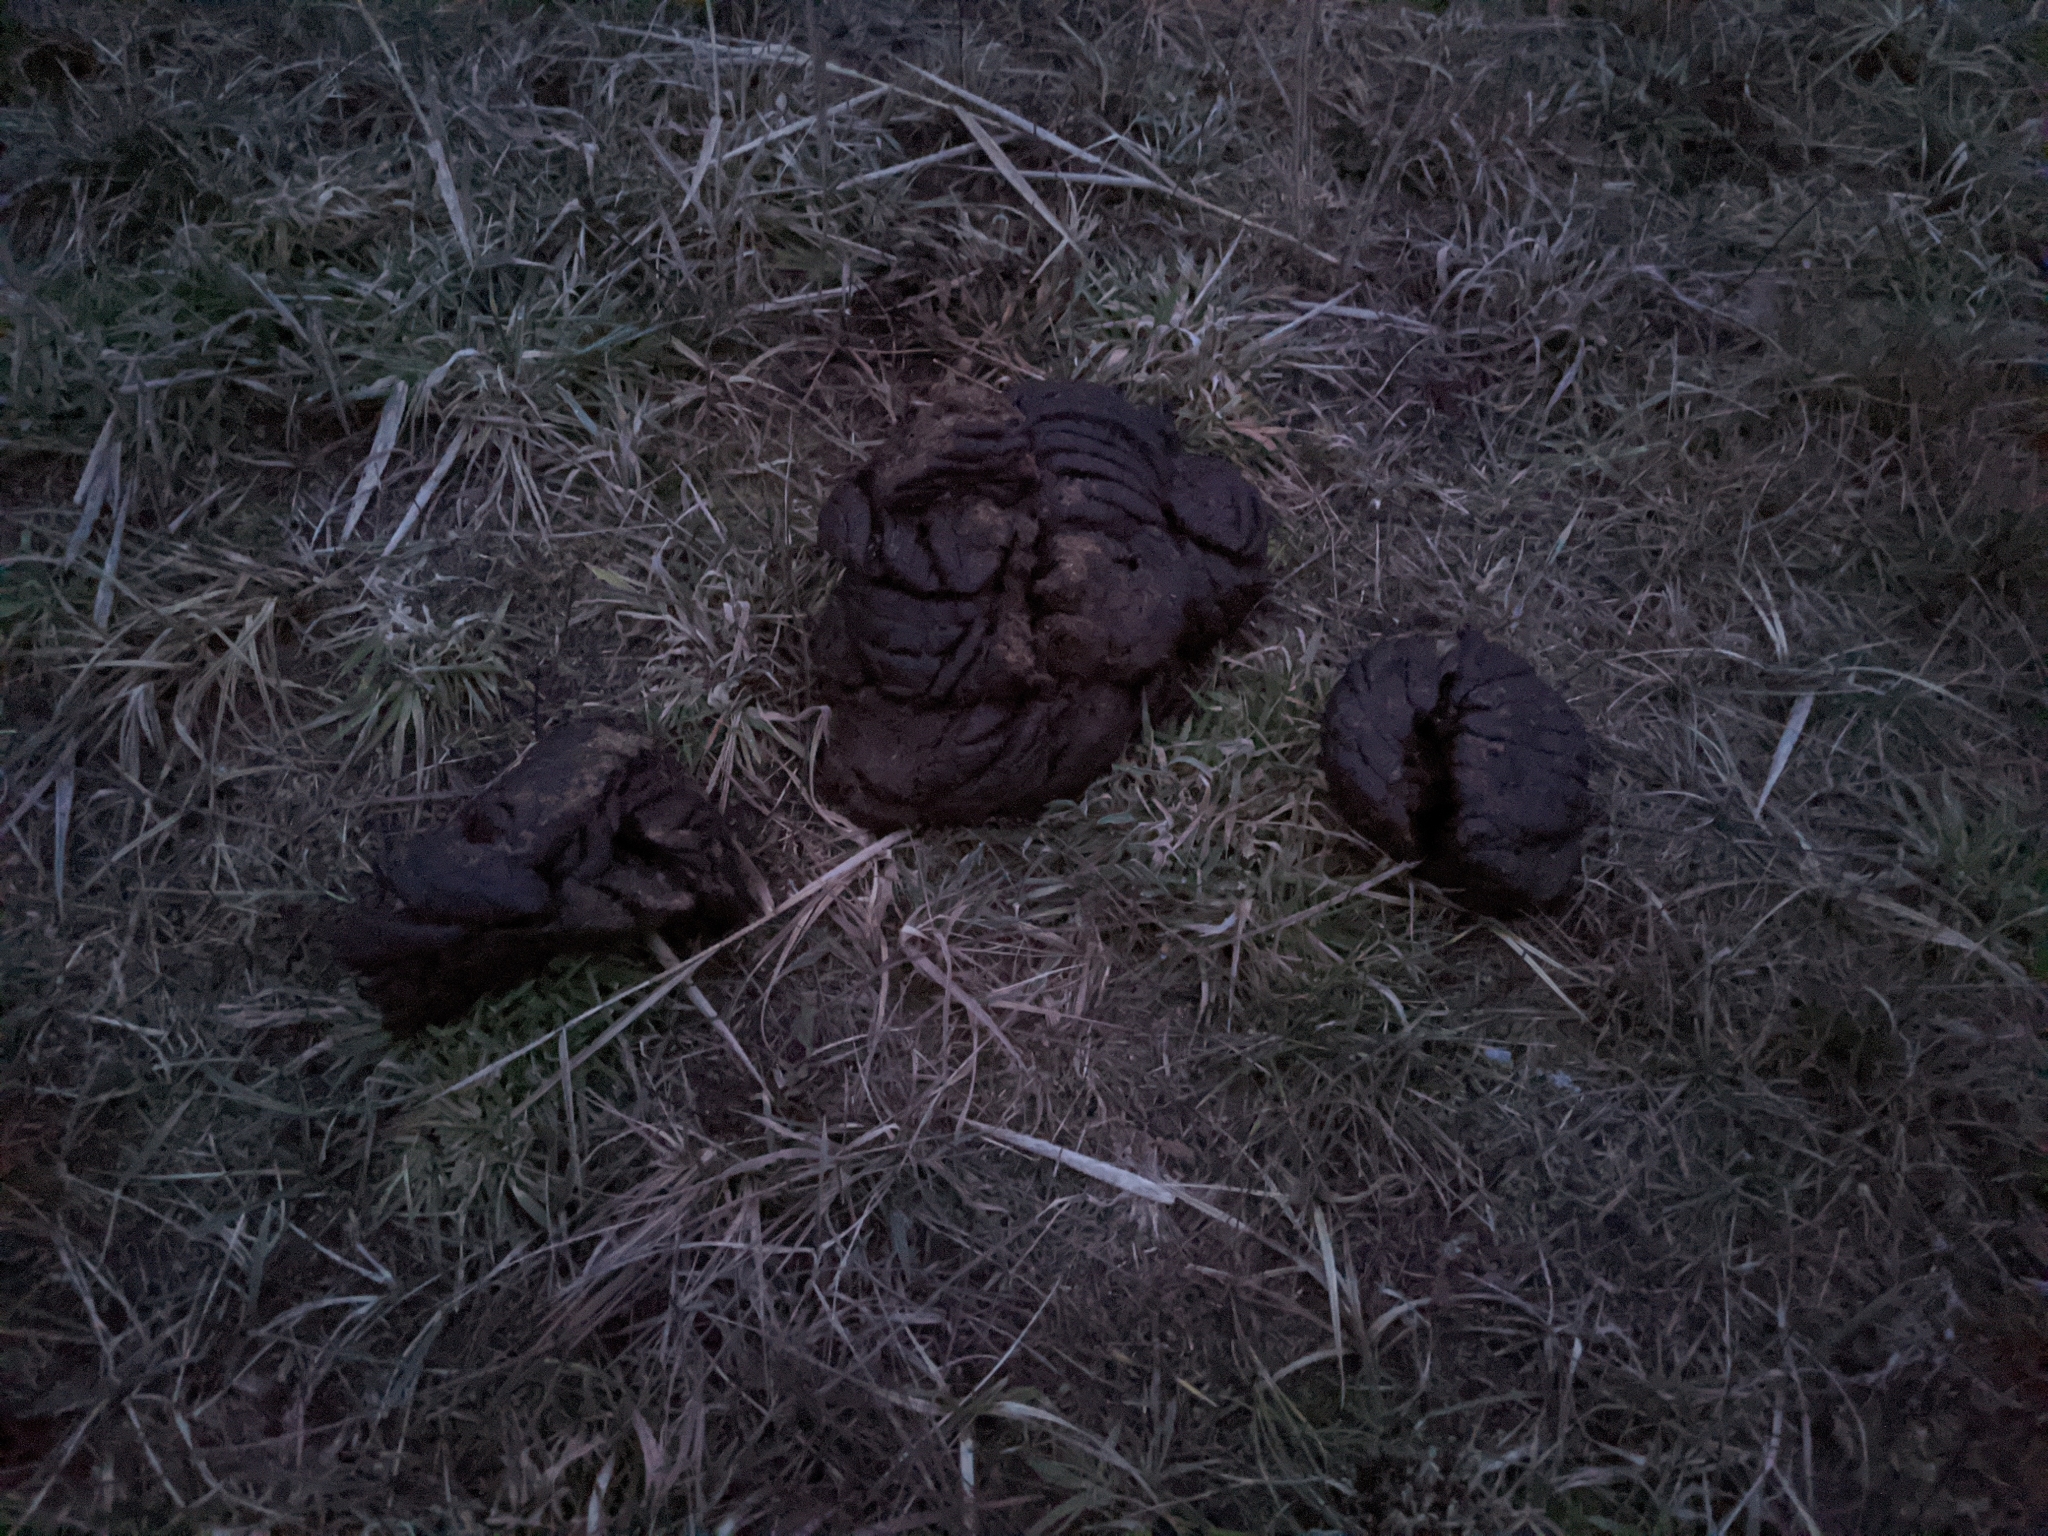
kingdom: Animalia
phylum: Chordata
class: Mammalia
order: Artiodactyla
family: Bovidae
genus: Bison
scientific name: Bison bonasus
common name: European bison
